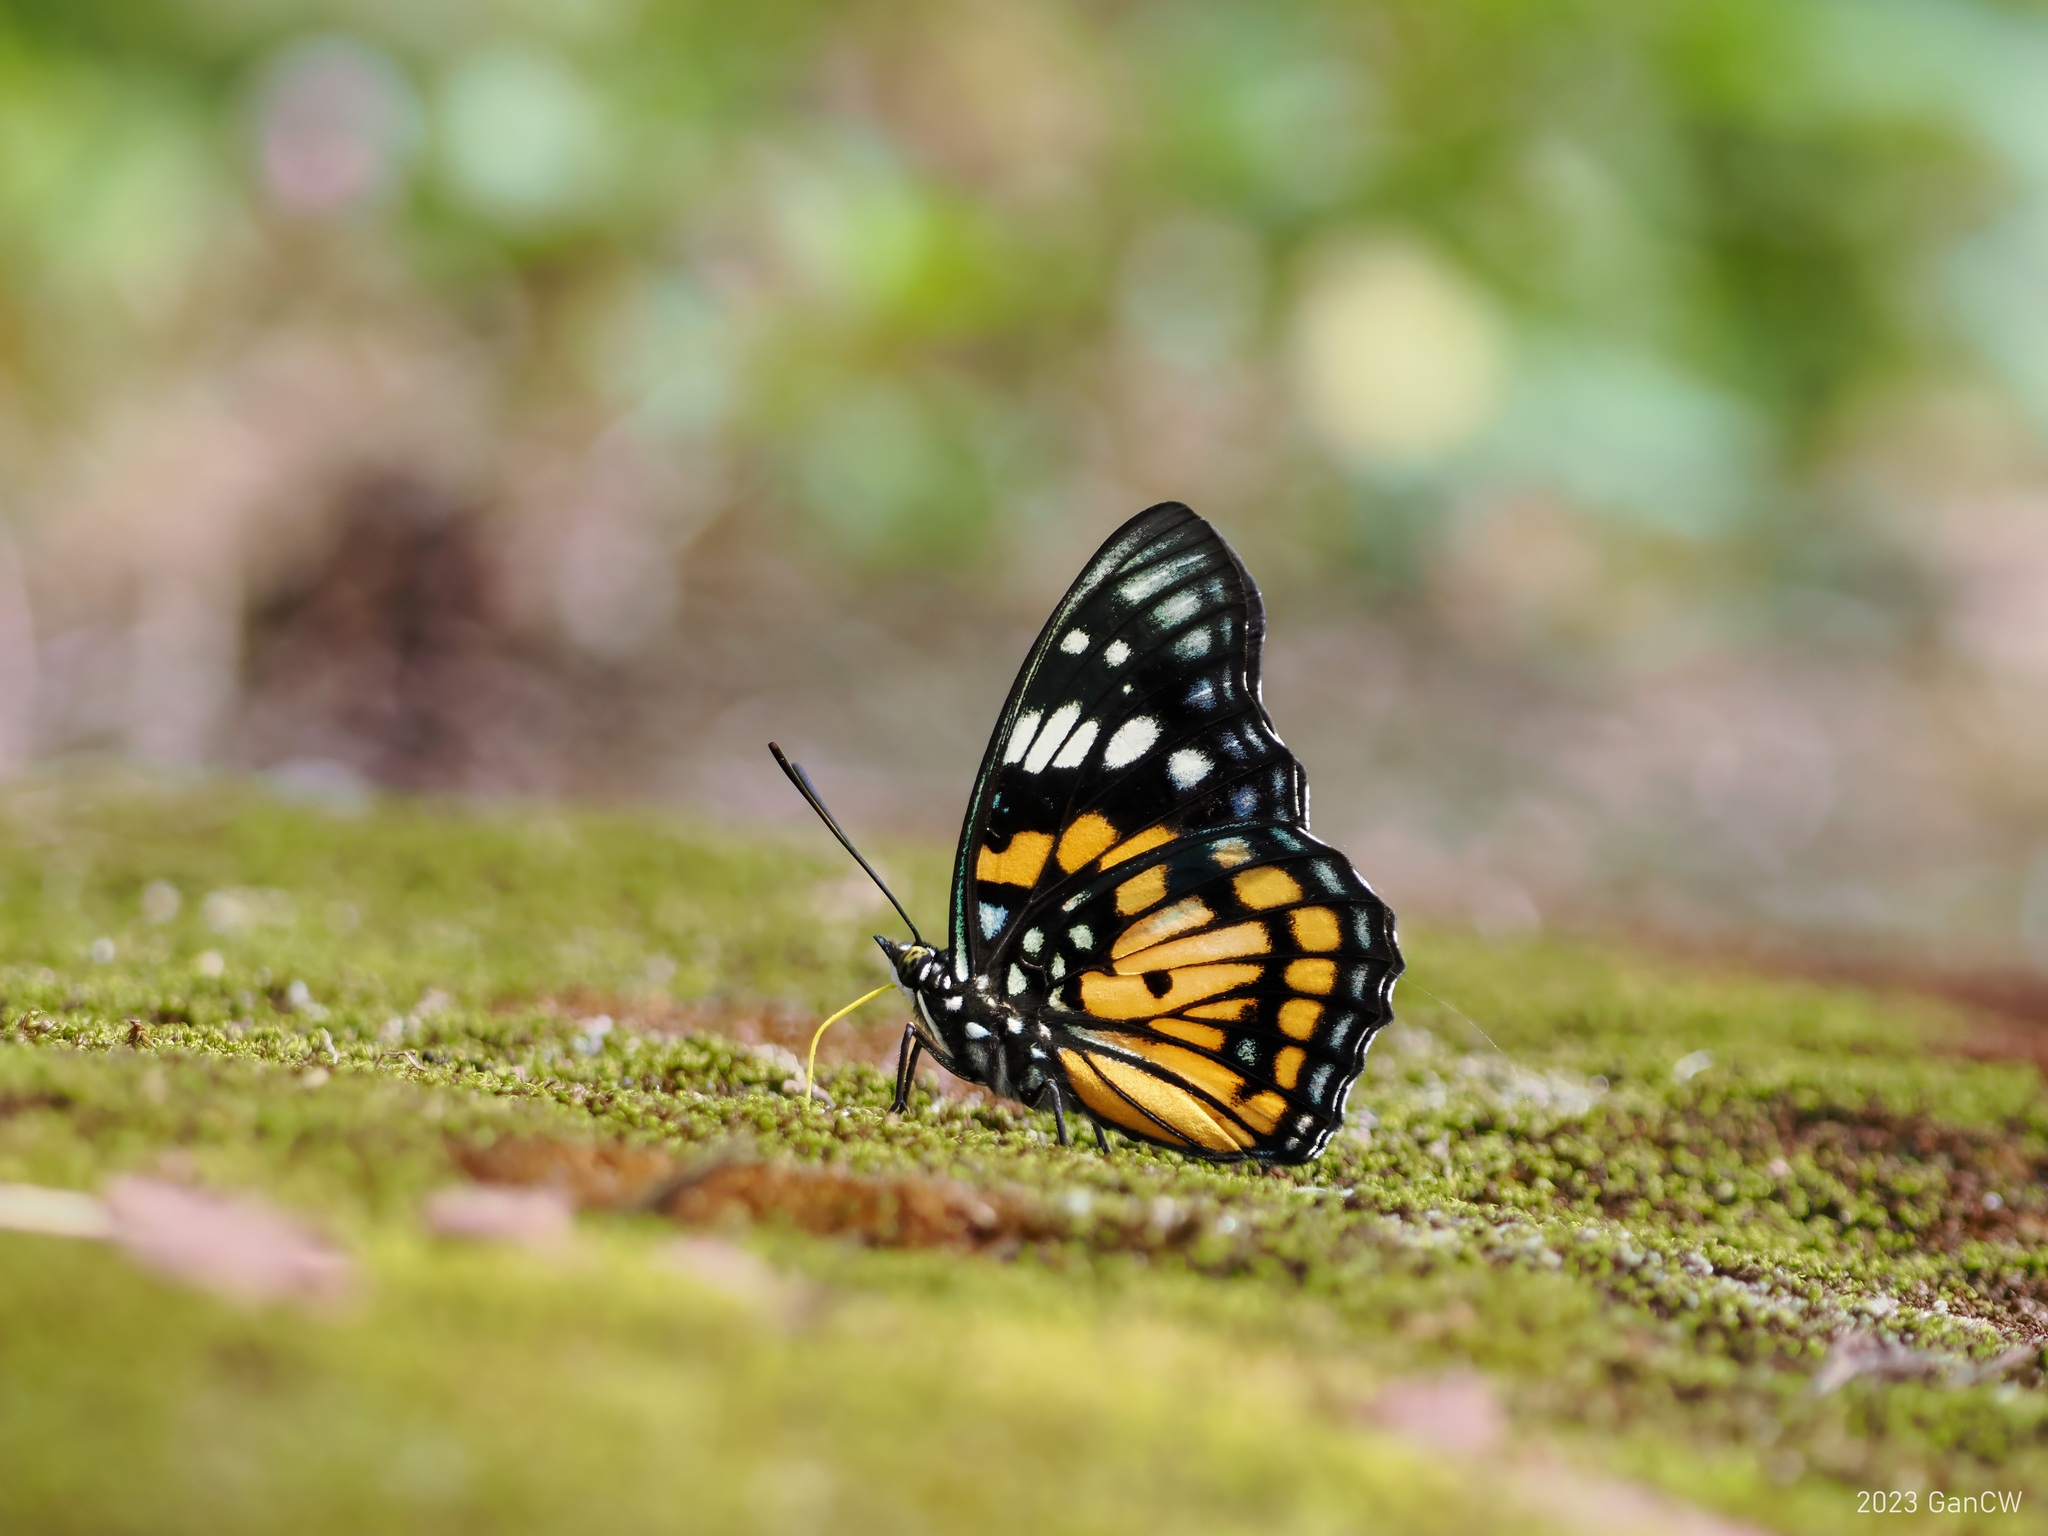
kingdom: Animalia
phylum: Arthropoda
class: Insecta
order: Lepidoptera
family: Nymphalidae
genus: Sephisa
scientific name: Sephisa chandra
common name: Eastern courtier
